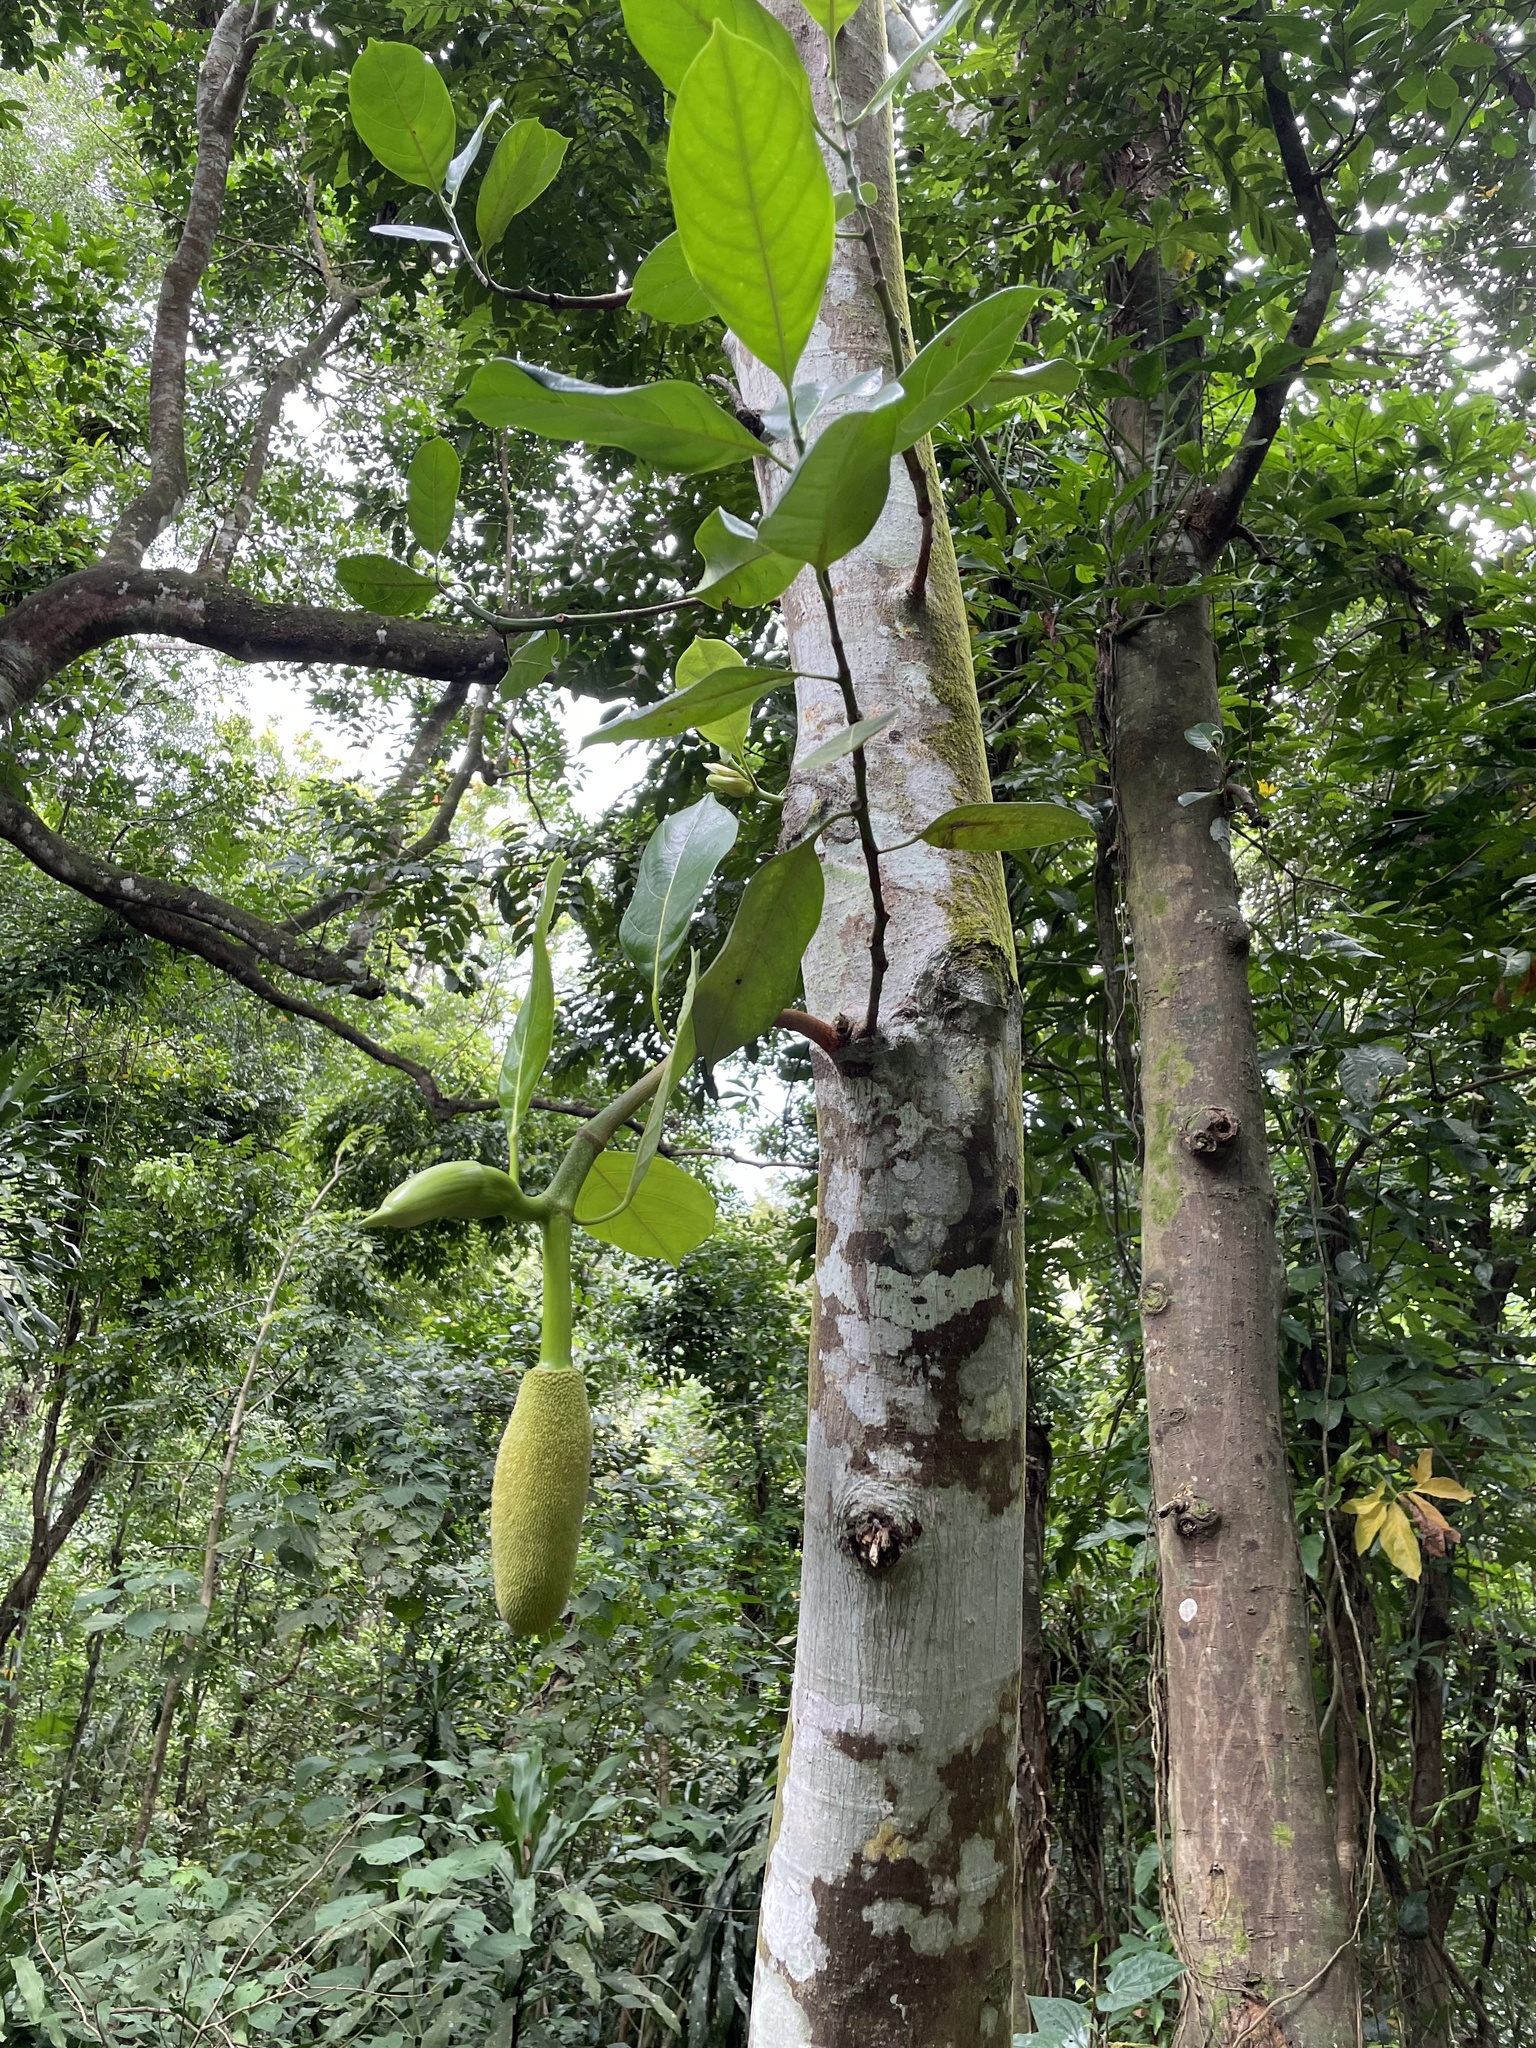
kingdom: Plantae
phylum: Tracheophyta
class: Magnoliopsida
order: Rosales
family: Moraceae
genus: Artocarpus
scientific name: Artocarpus heterophyllus
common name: Jackfruit
